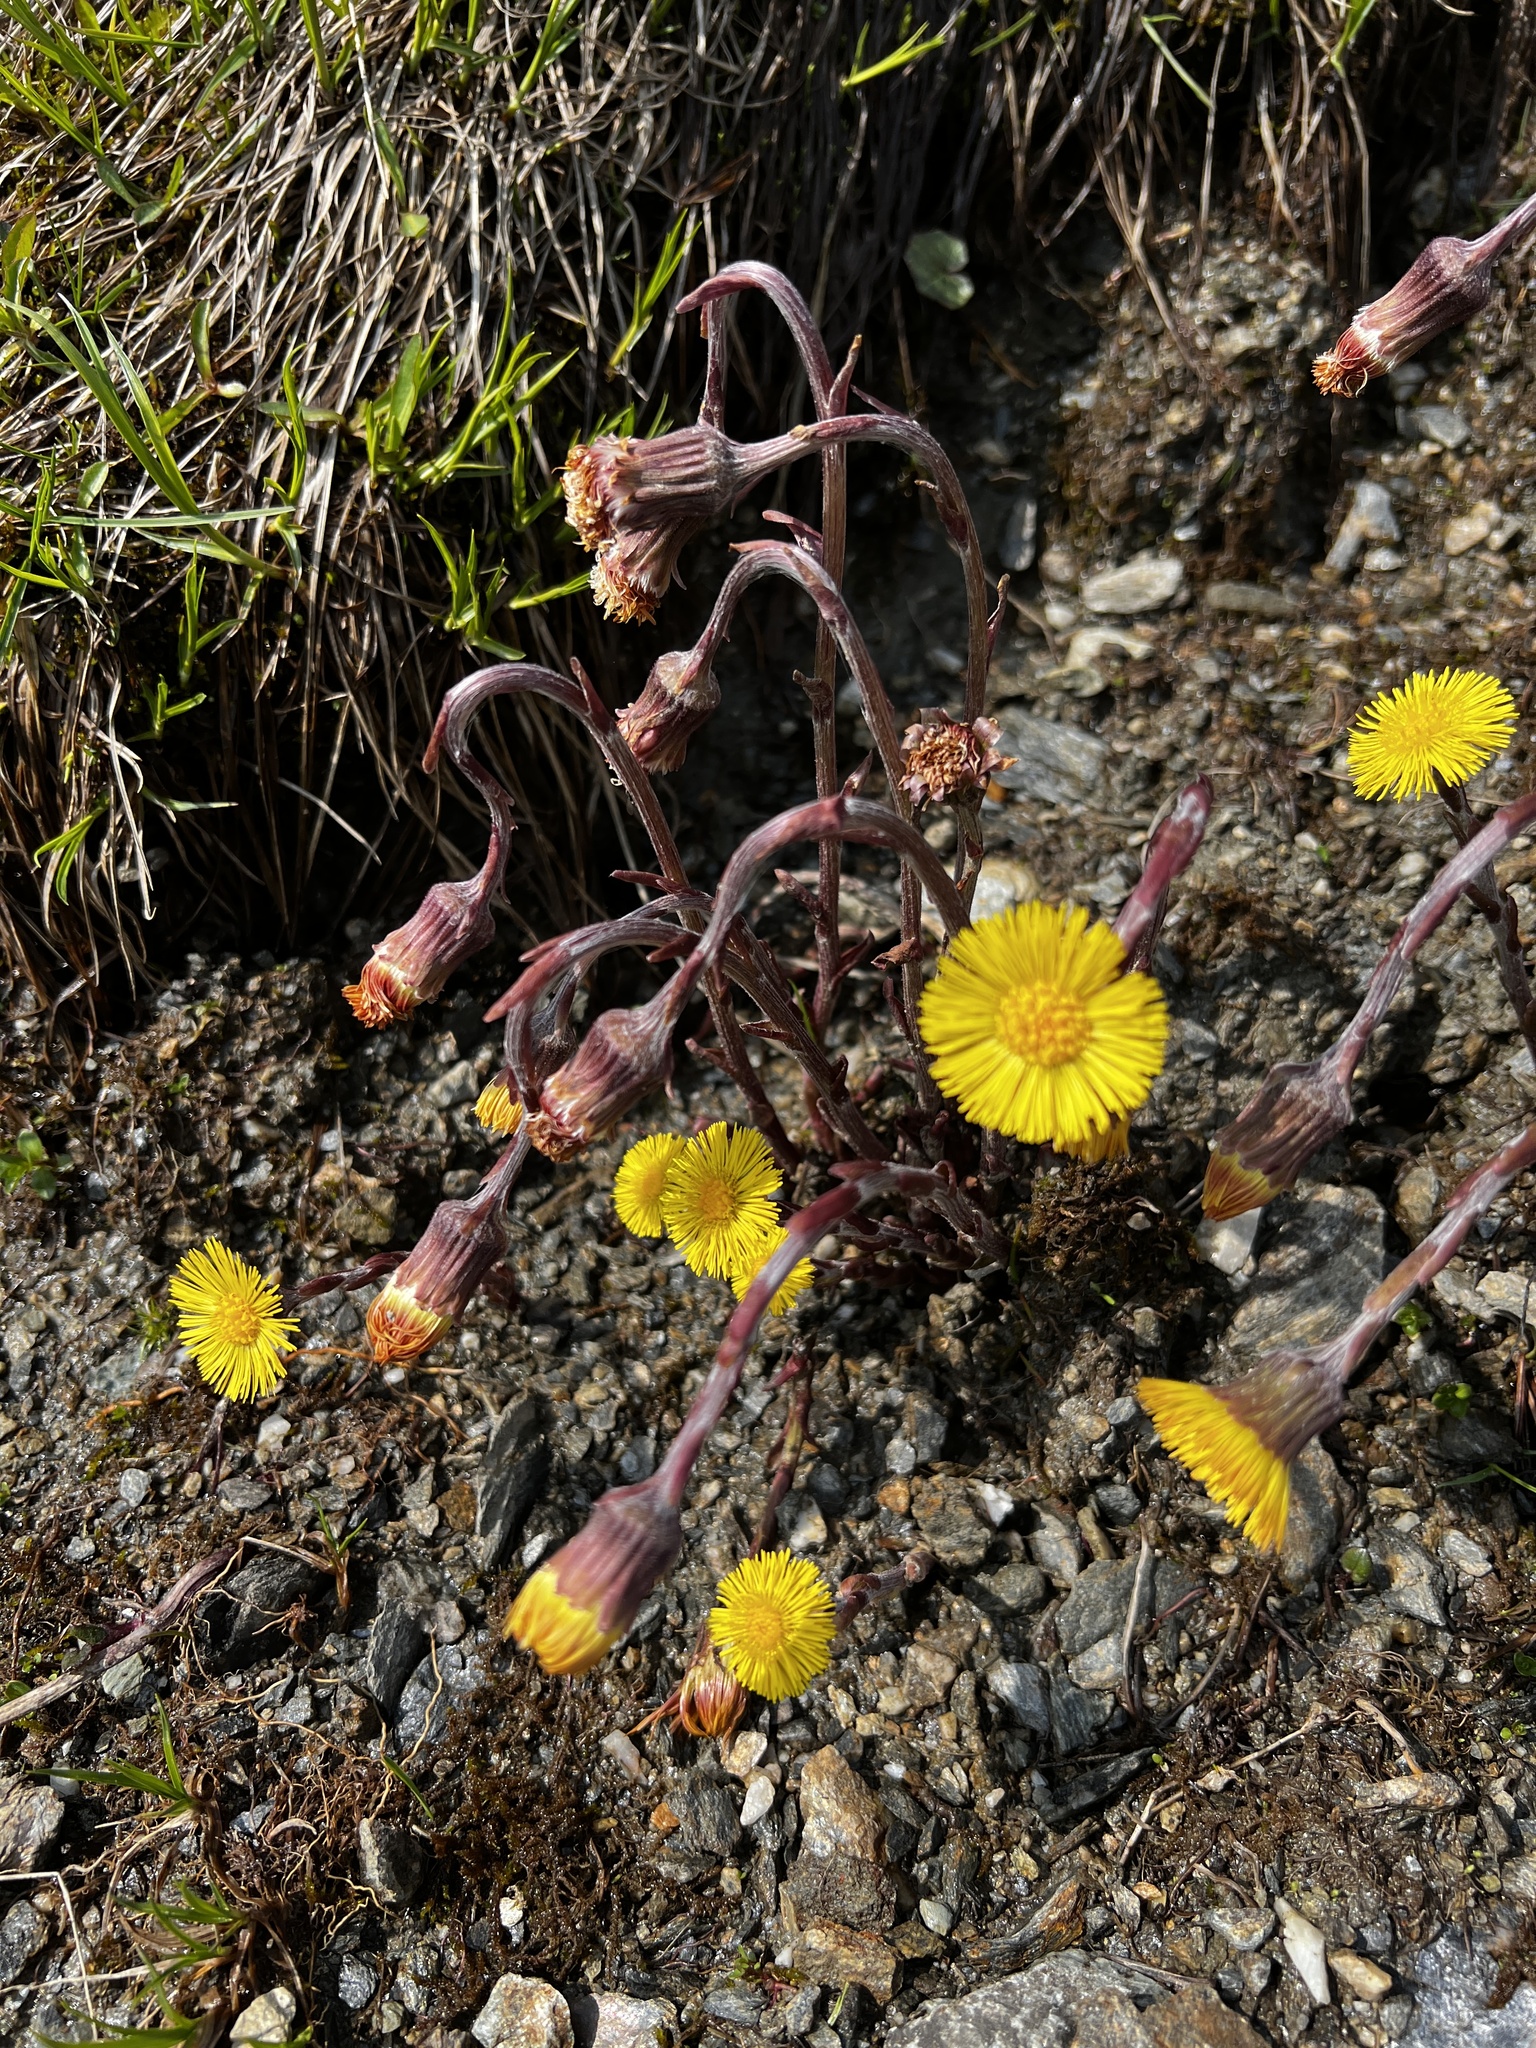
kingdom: Plantae
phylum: Tracheophyta
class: Magnoliopsida
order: Asterales
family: Asteraceae
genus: Tussilago
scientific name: Tussilago farfara
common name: Coltsfoot
